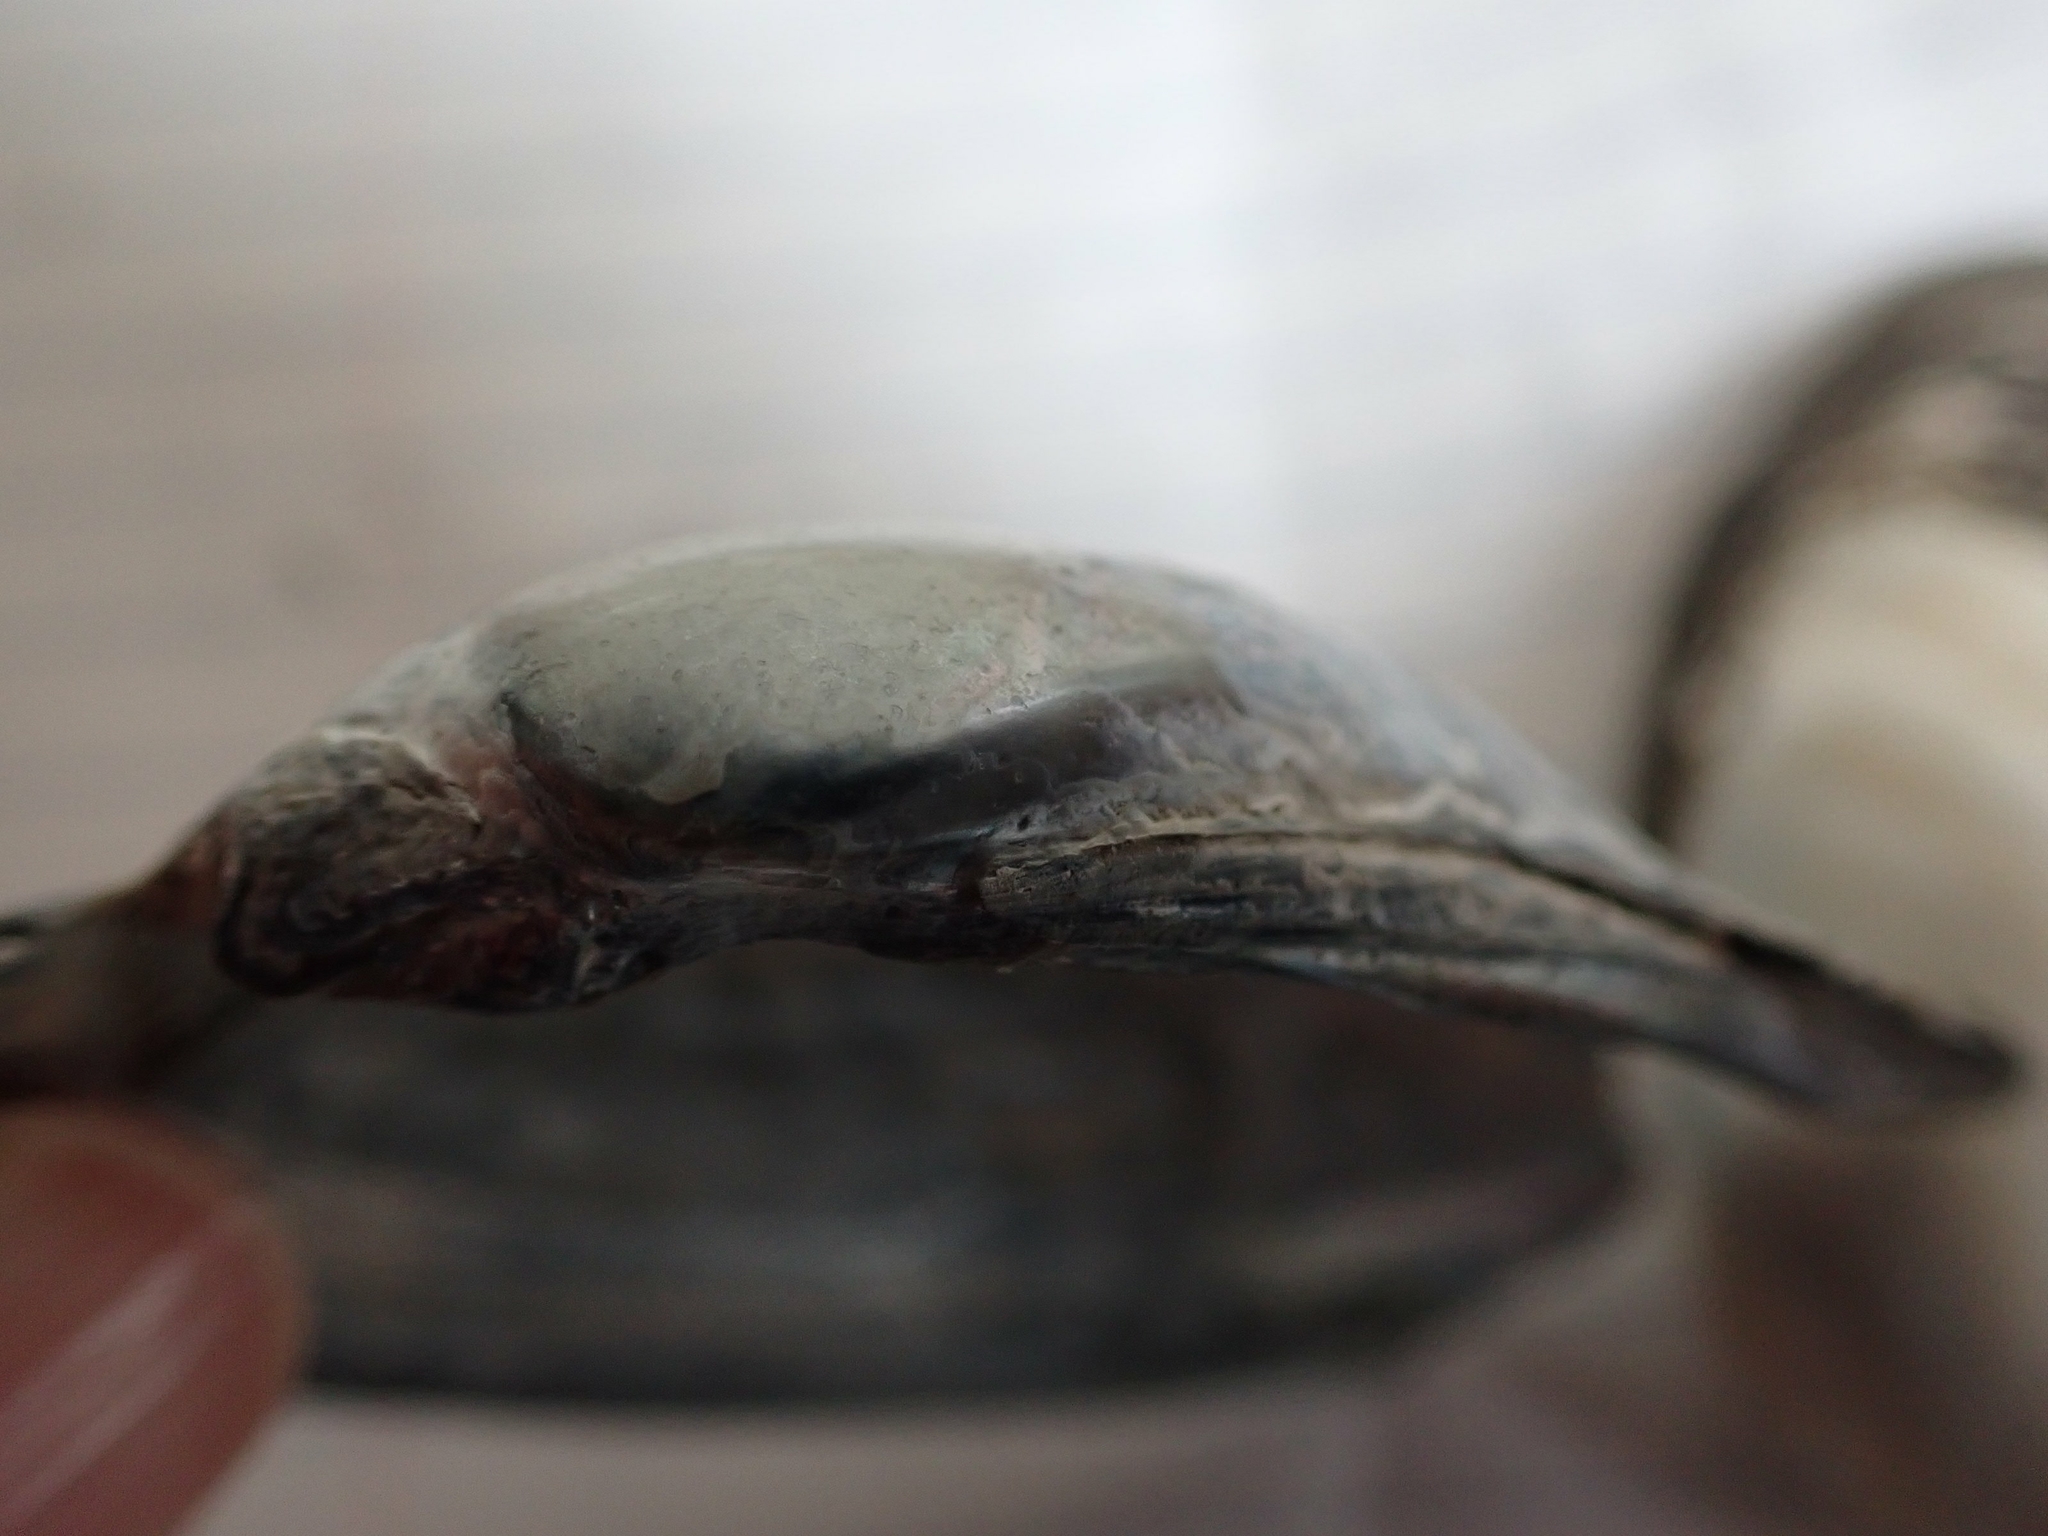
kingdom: Animalia
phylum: Mollusca
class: Bivalvia
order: Unionida
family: Unionidae
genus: Lampsilis
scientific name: Lampsilis cardium
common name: Plain pocketbook
